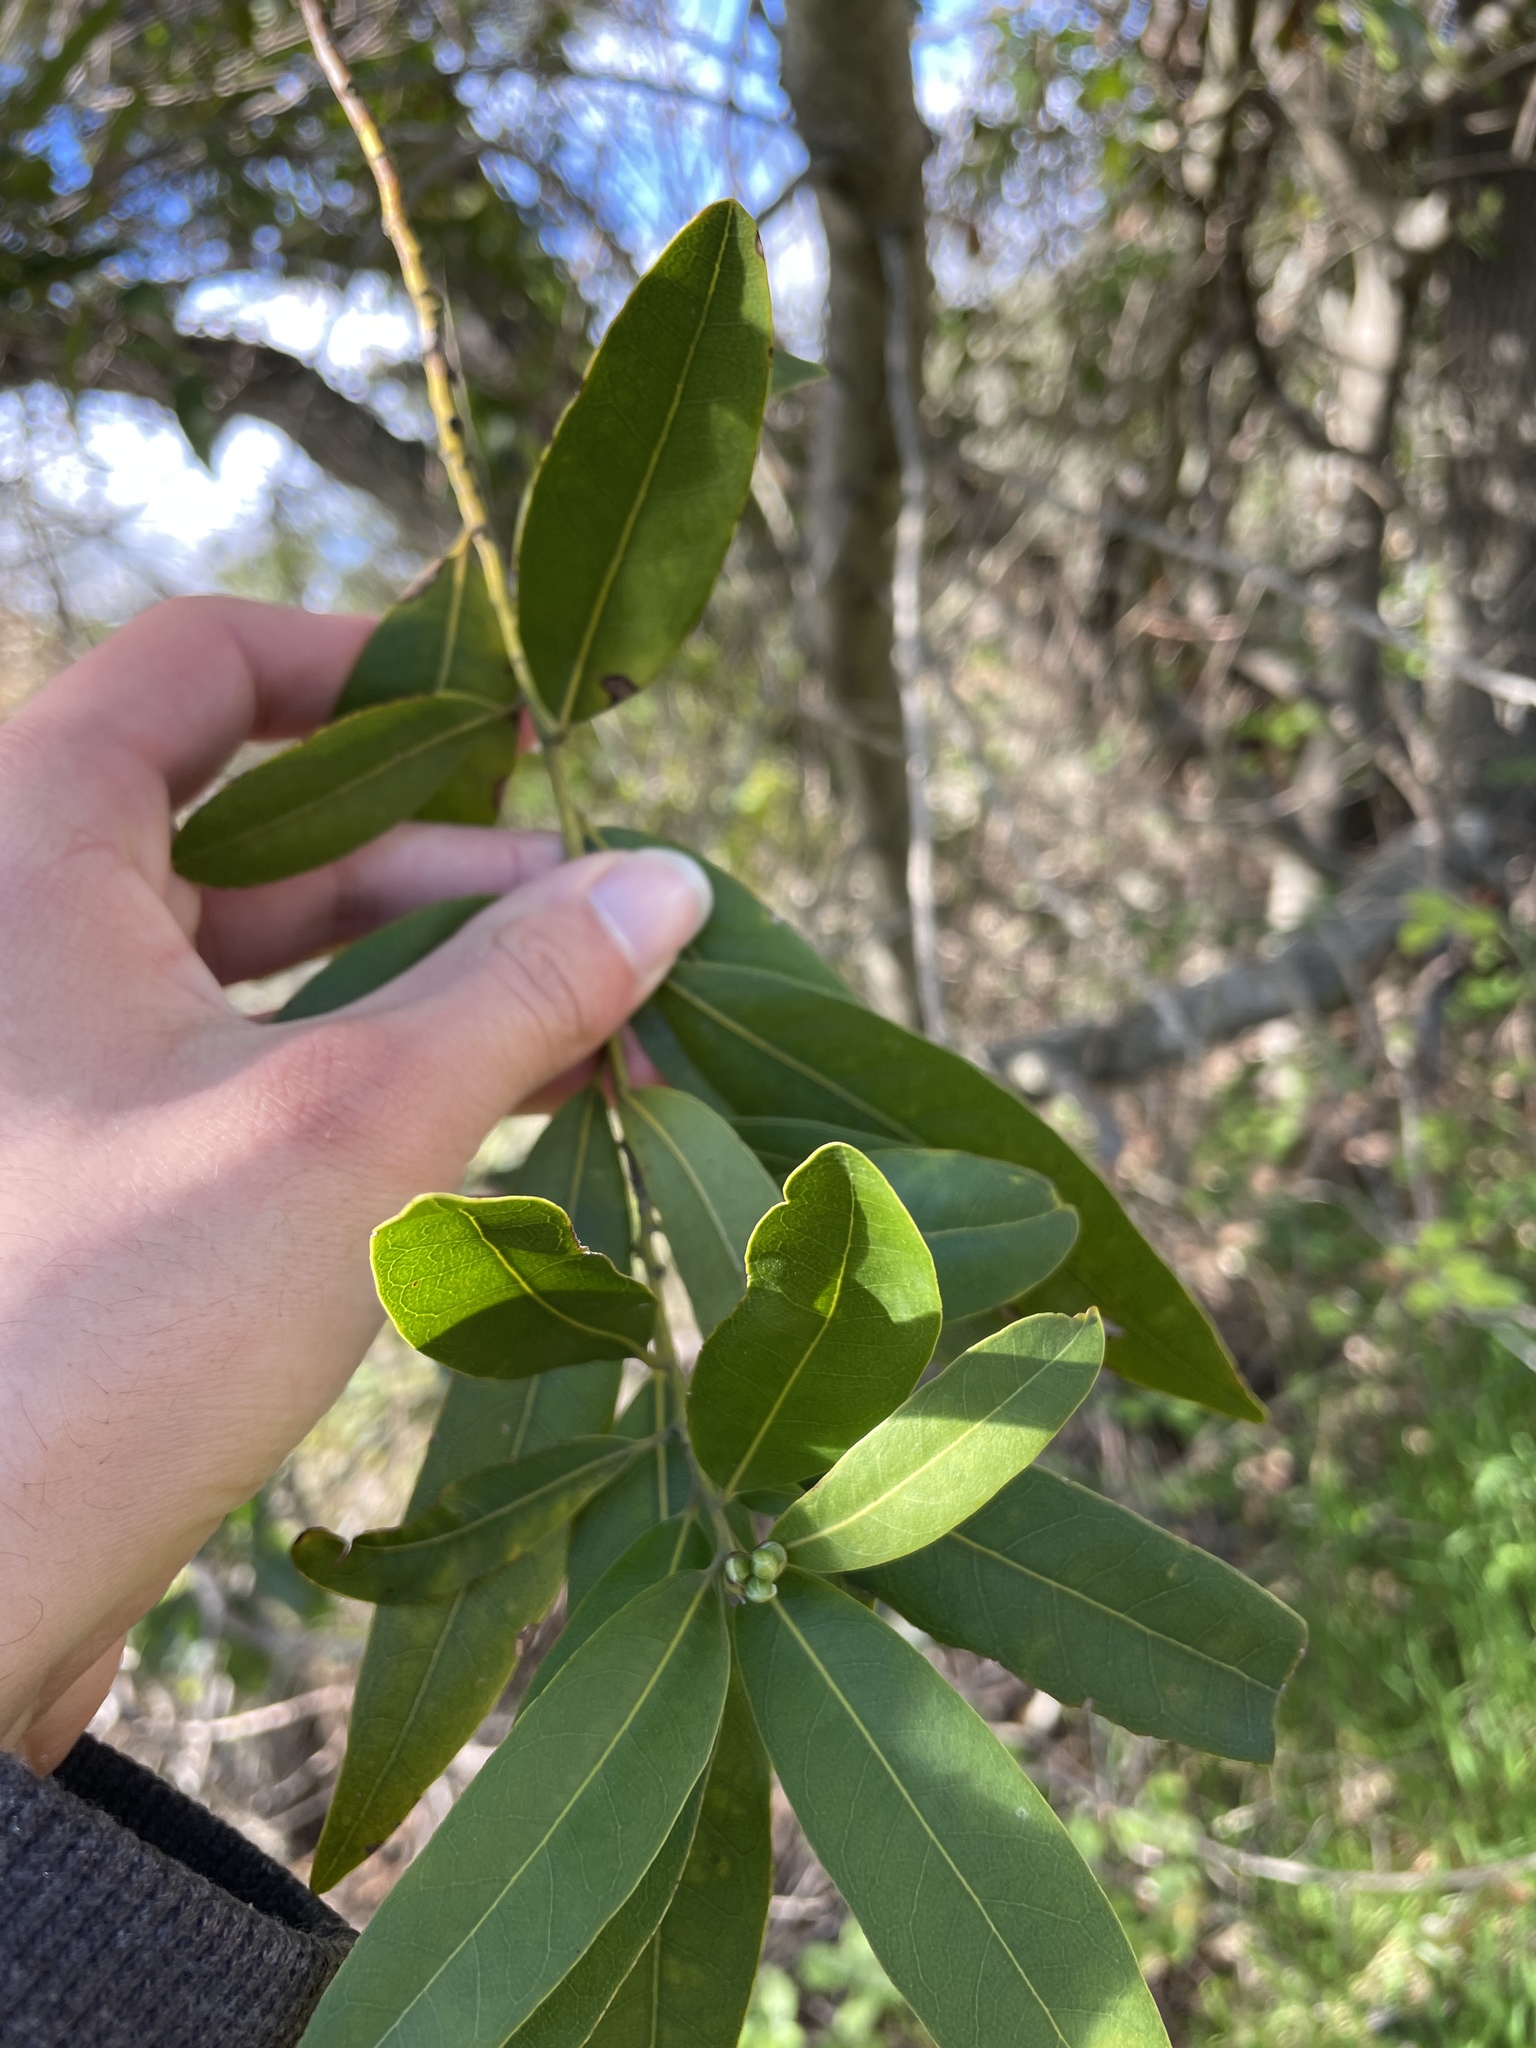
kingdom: Plantae
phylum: Tracheophyta
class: Magnoliopsida
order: Laurales
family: Lauraceae
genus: Umbellularia
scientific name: Umbellularia californica
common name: California bay
